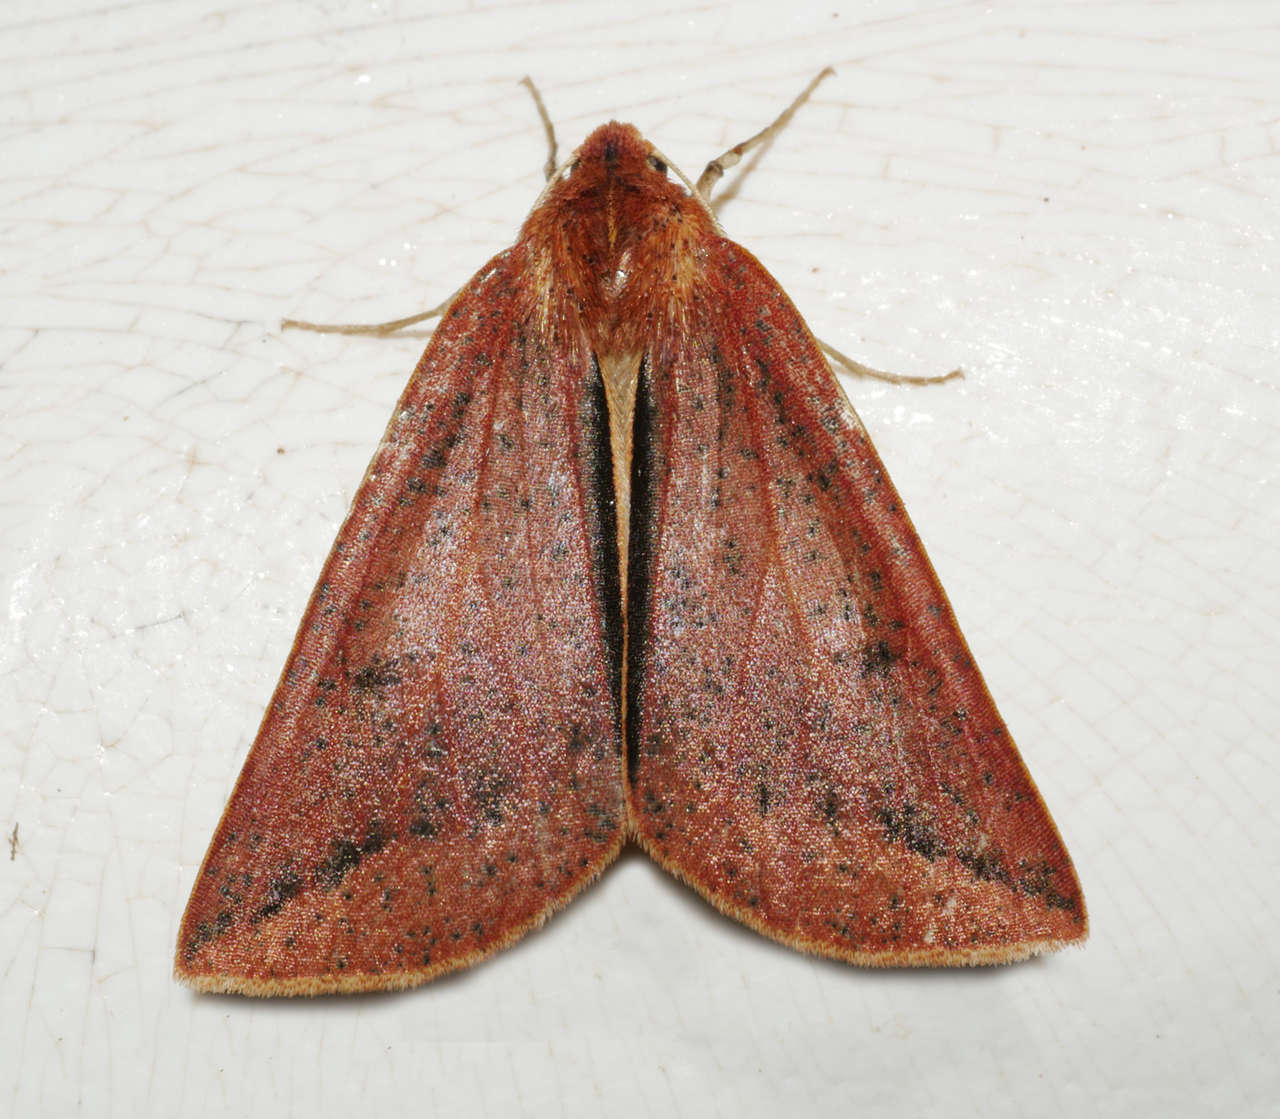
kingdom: Animalia
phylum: Arthropoda
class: Insecta
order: Lepidoptera
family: Geometridae
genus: Cycloprorodes
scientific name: Cycloprorodes melanoxysta
